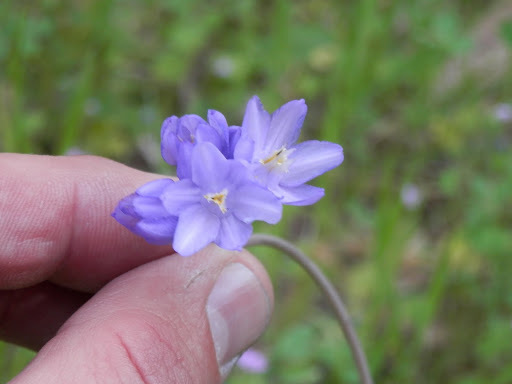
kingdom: Plantae
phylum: Tracheophyta
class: Liliopsida
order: Asparagales
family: Asparagaceae
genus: Dipterostemon
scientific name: Dipterostemon capitatus
